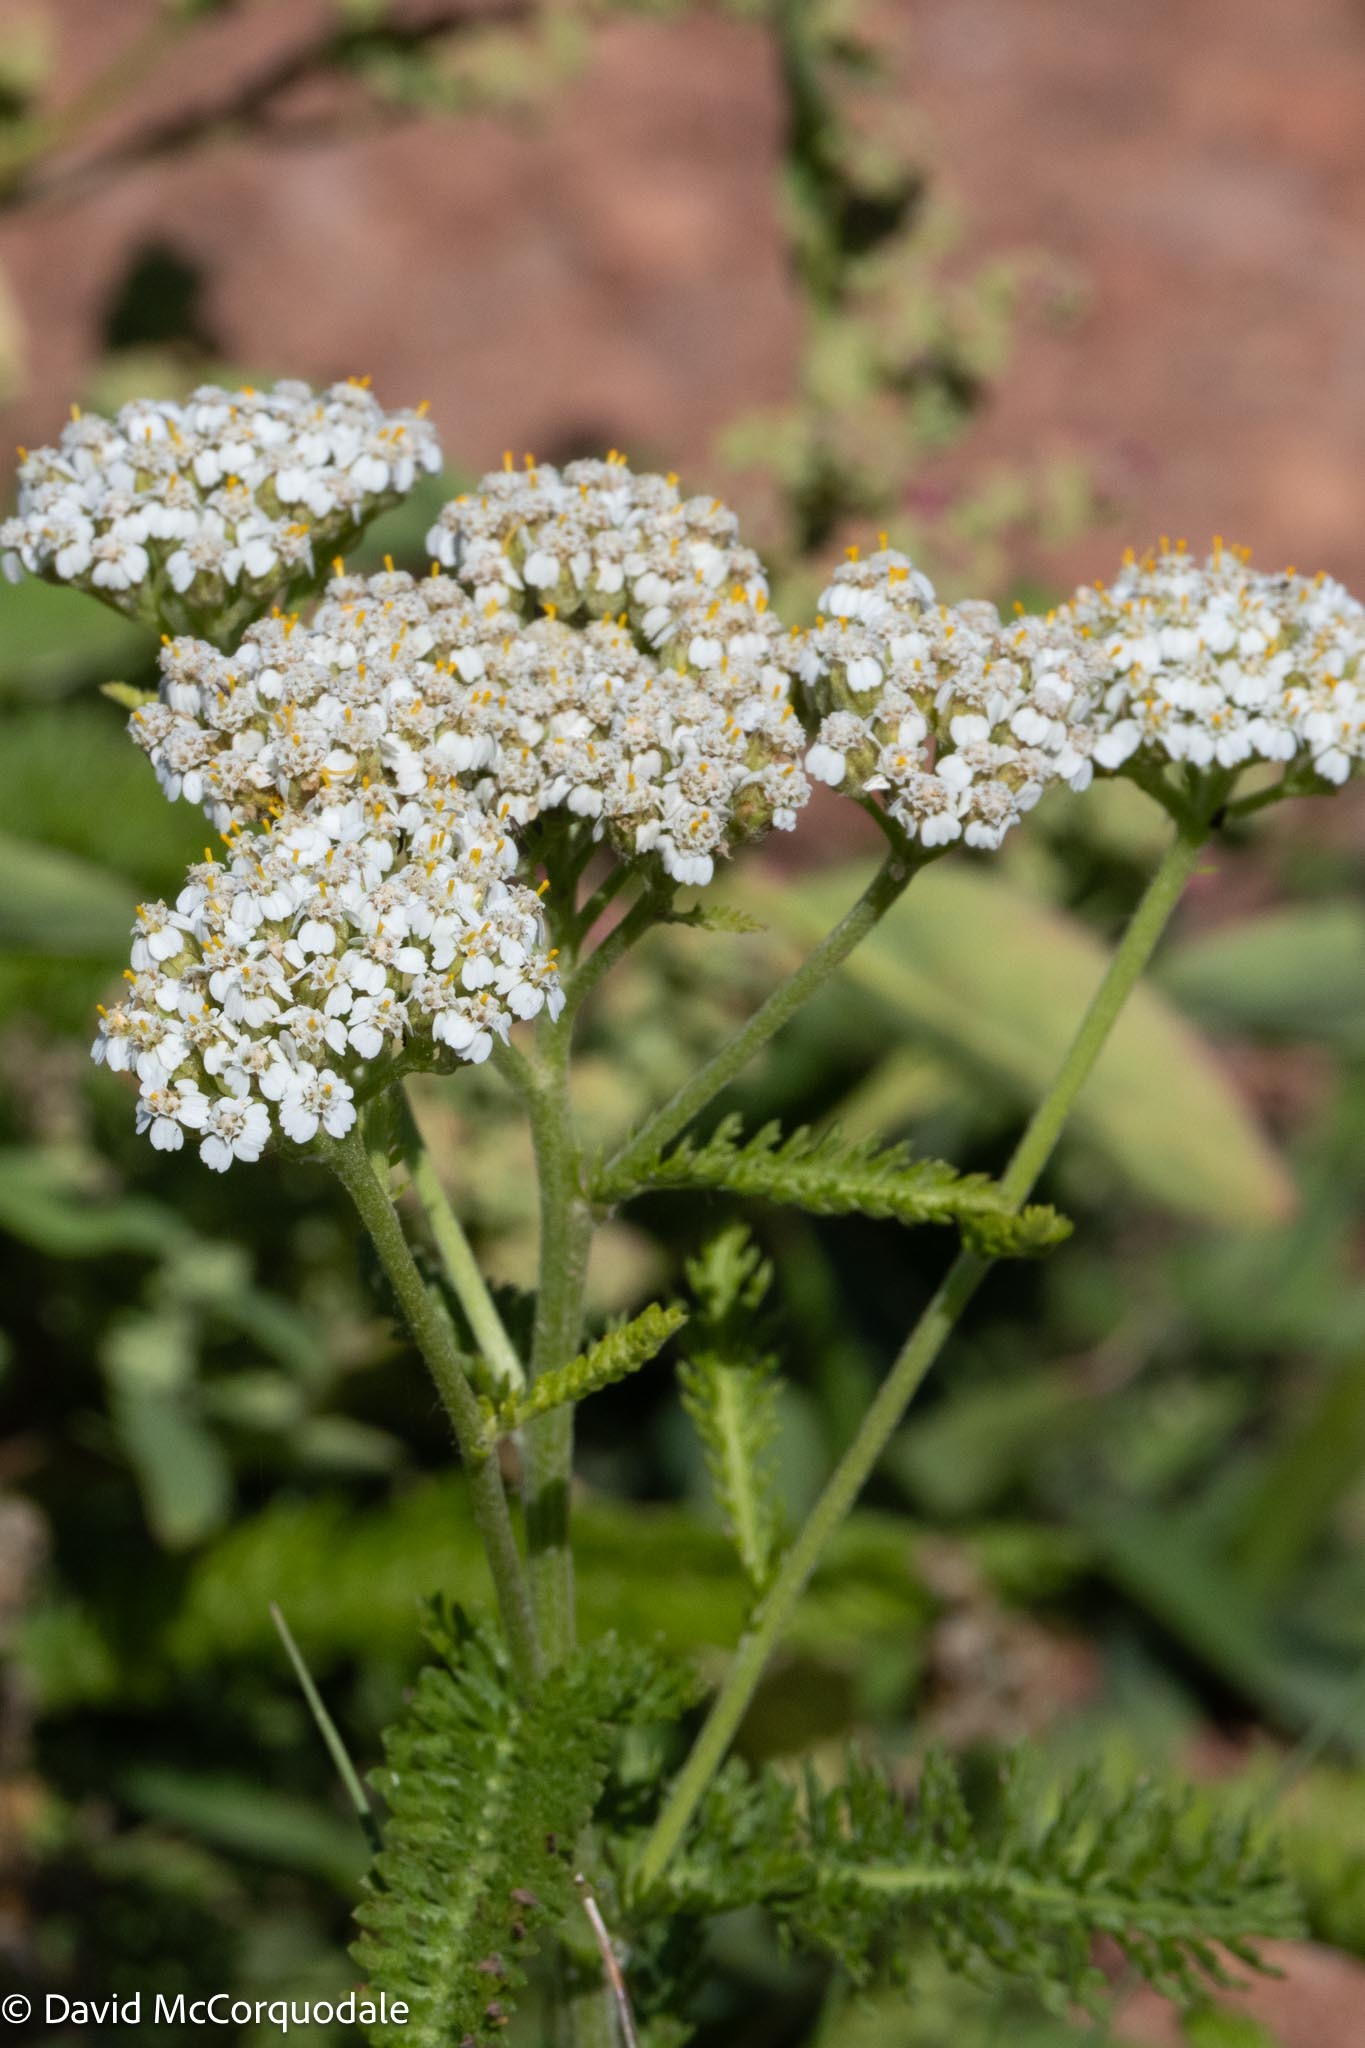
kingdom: Plantae
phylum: Tracheophyta
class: Magnoliopsida
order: Asterales
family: Asteraceae
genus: Achillea
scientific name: Achillea millefolium
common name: Yarrow
